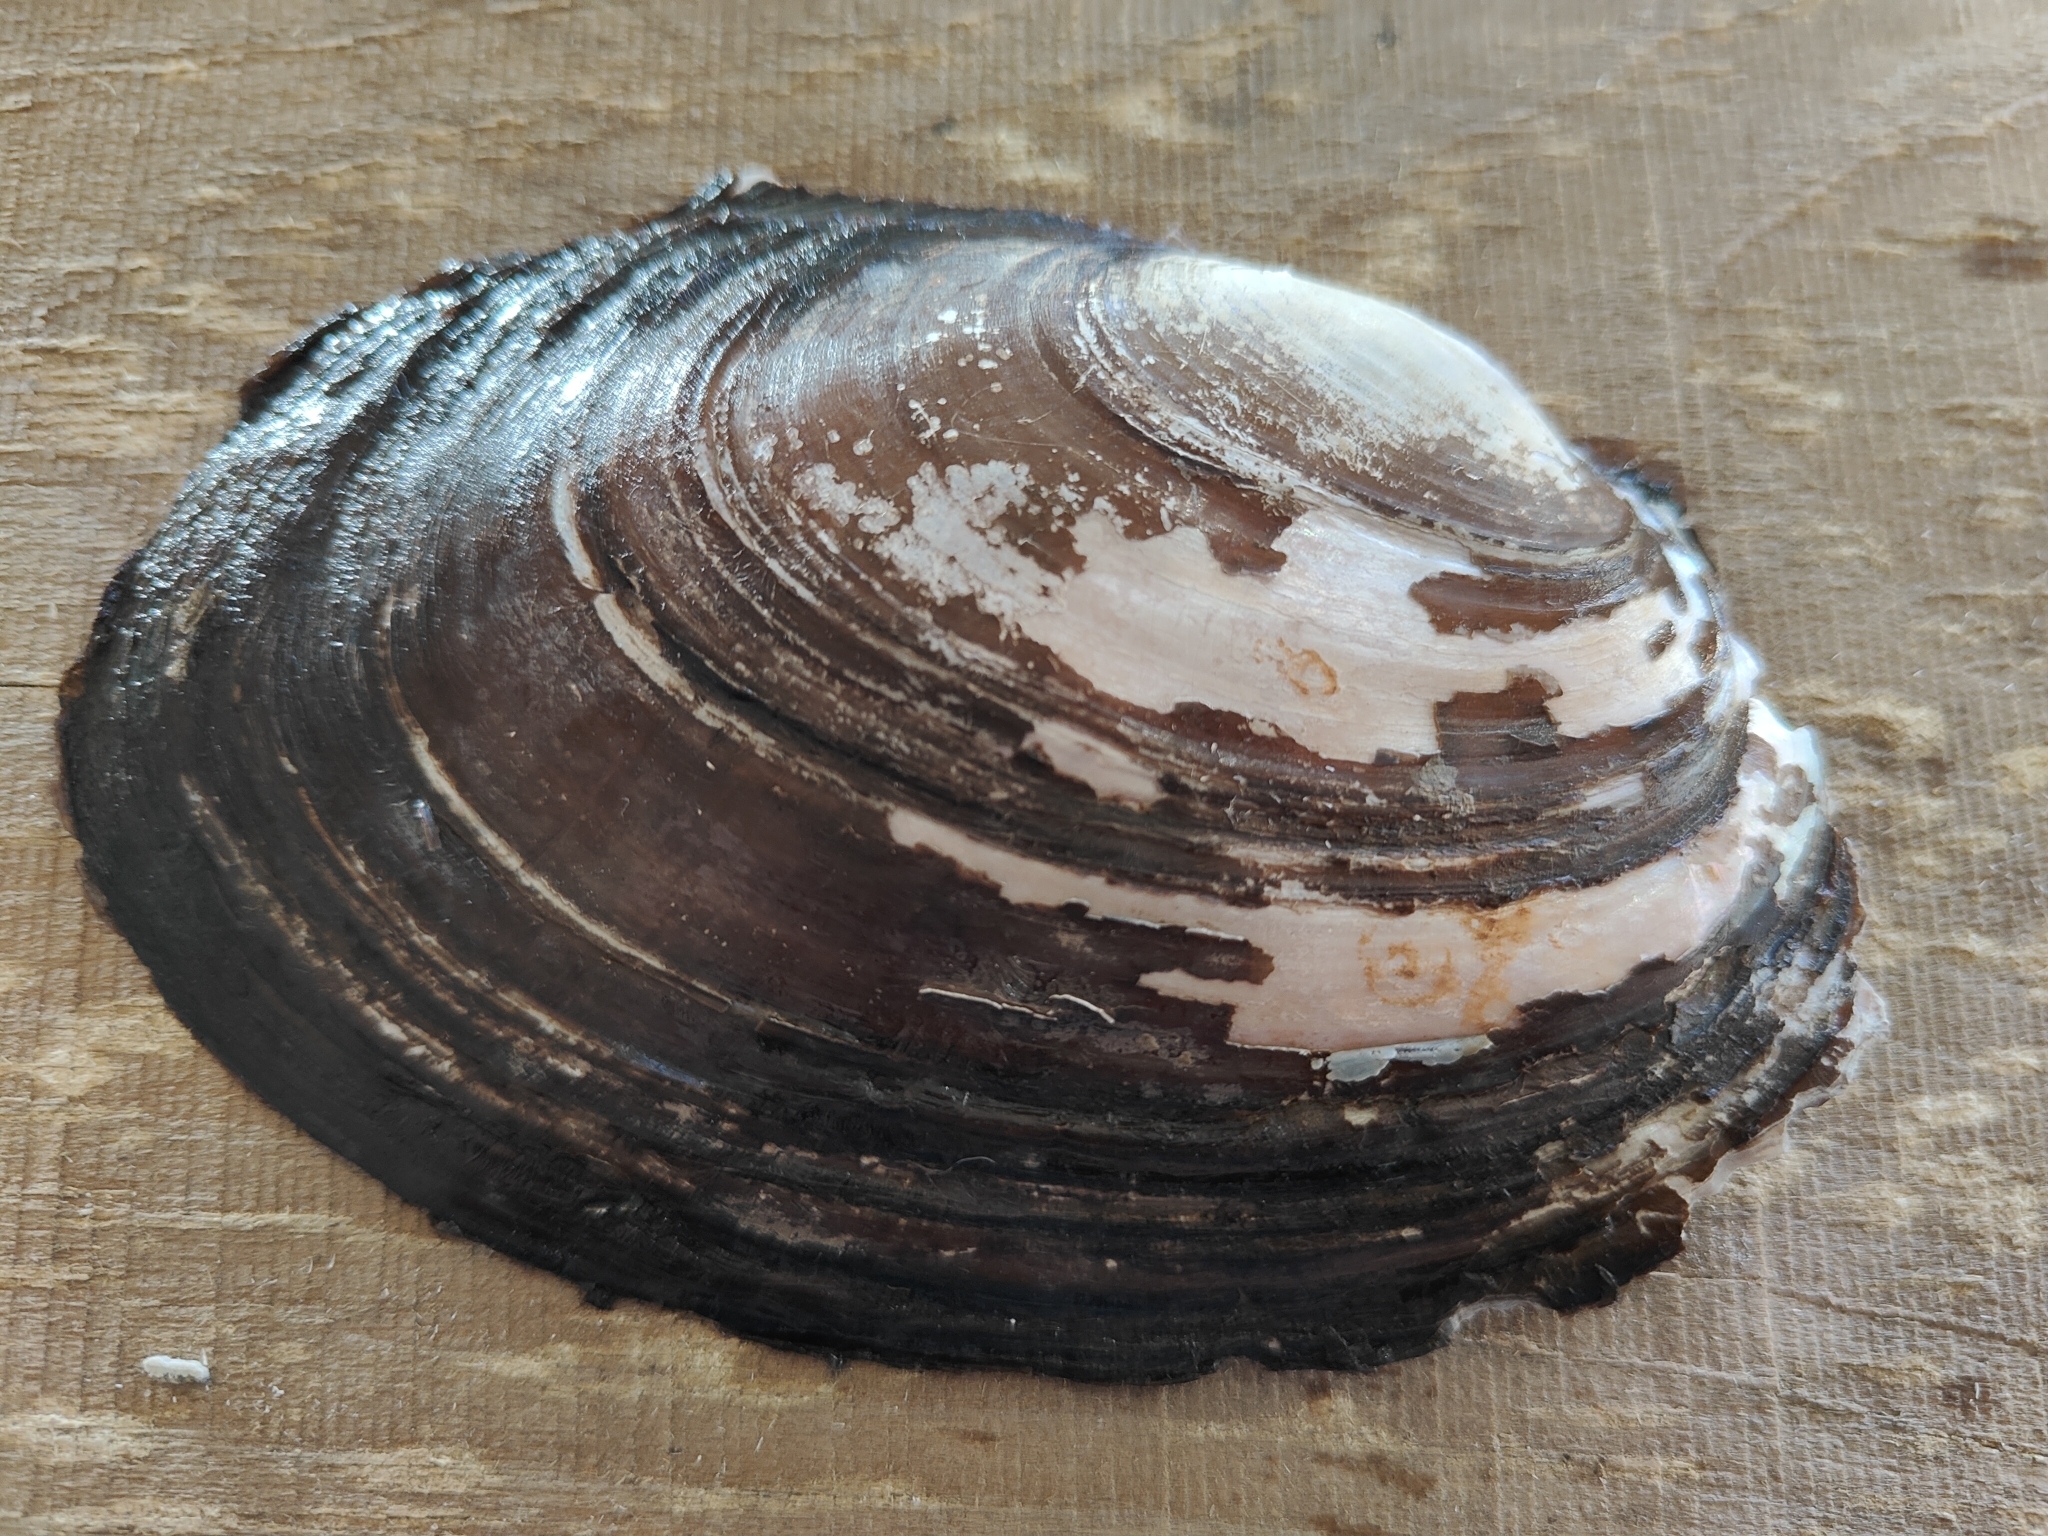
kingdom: Animalia
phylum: Mollusca
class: Bivalvia
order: Unionida
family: Unionidae
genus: Potamilus
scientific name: Potamilus ohiensis
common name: Pink papershell
